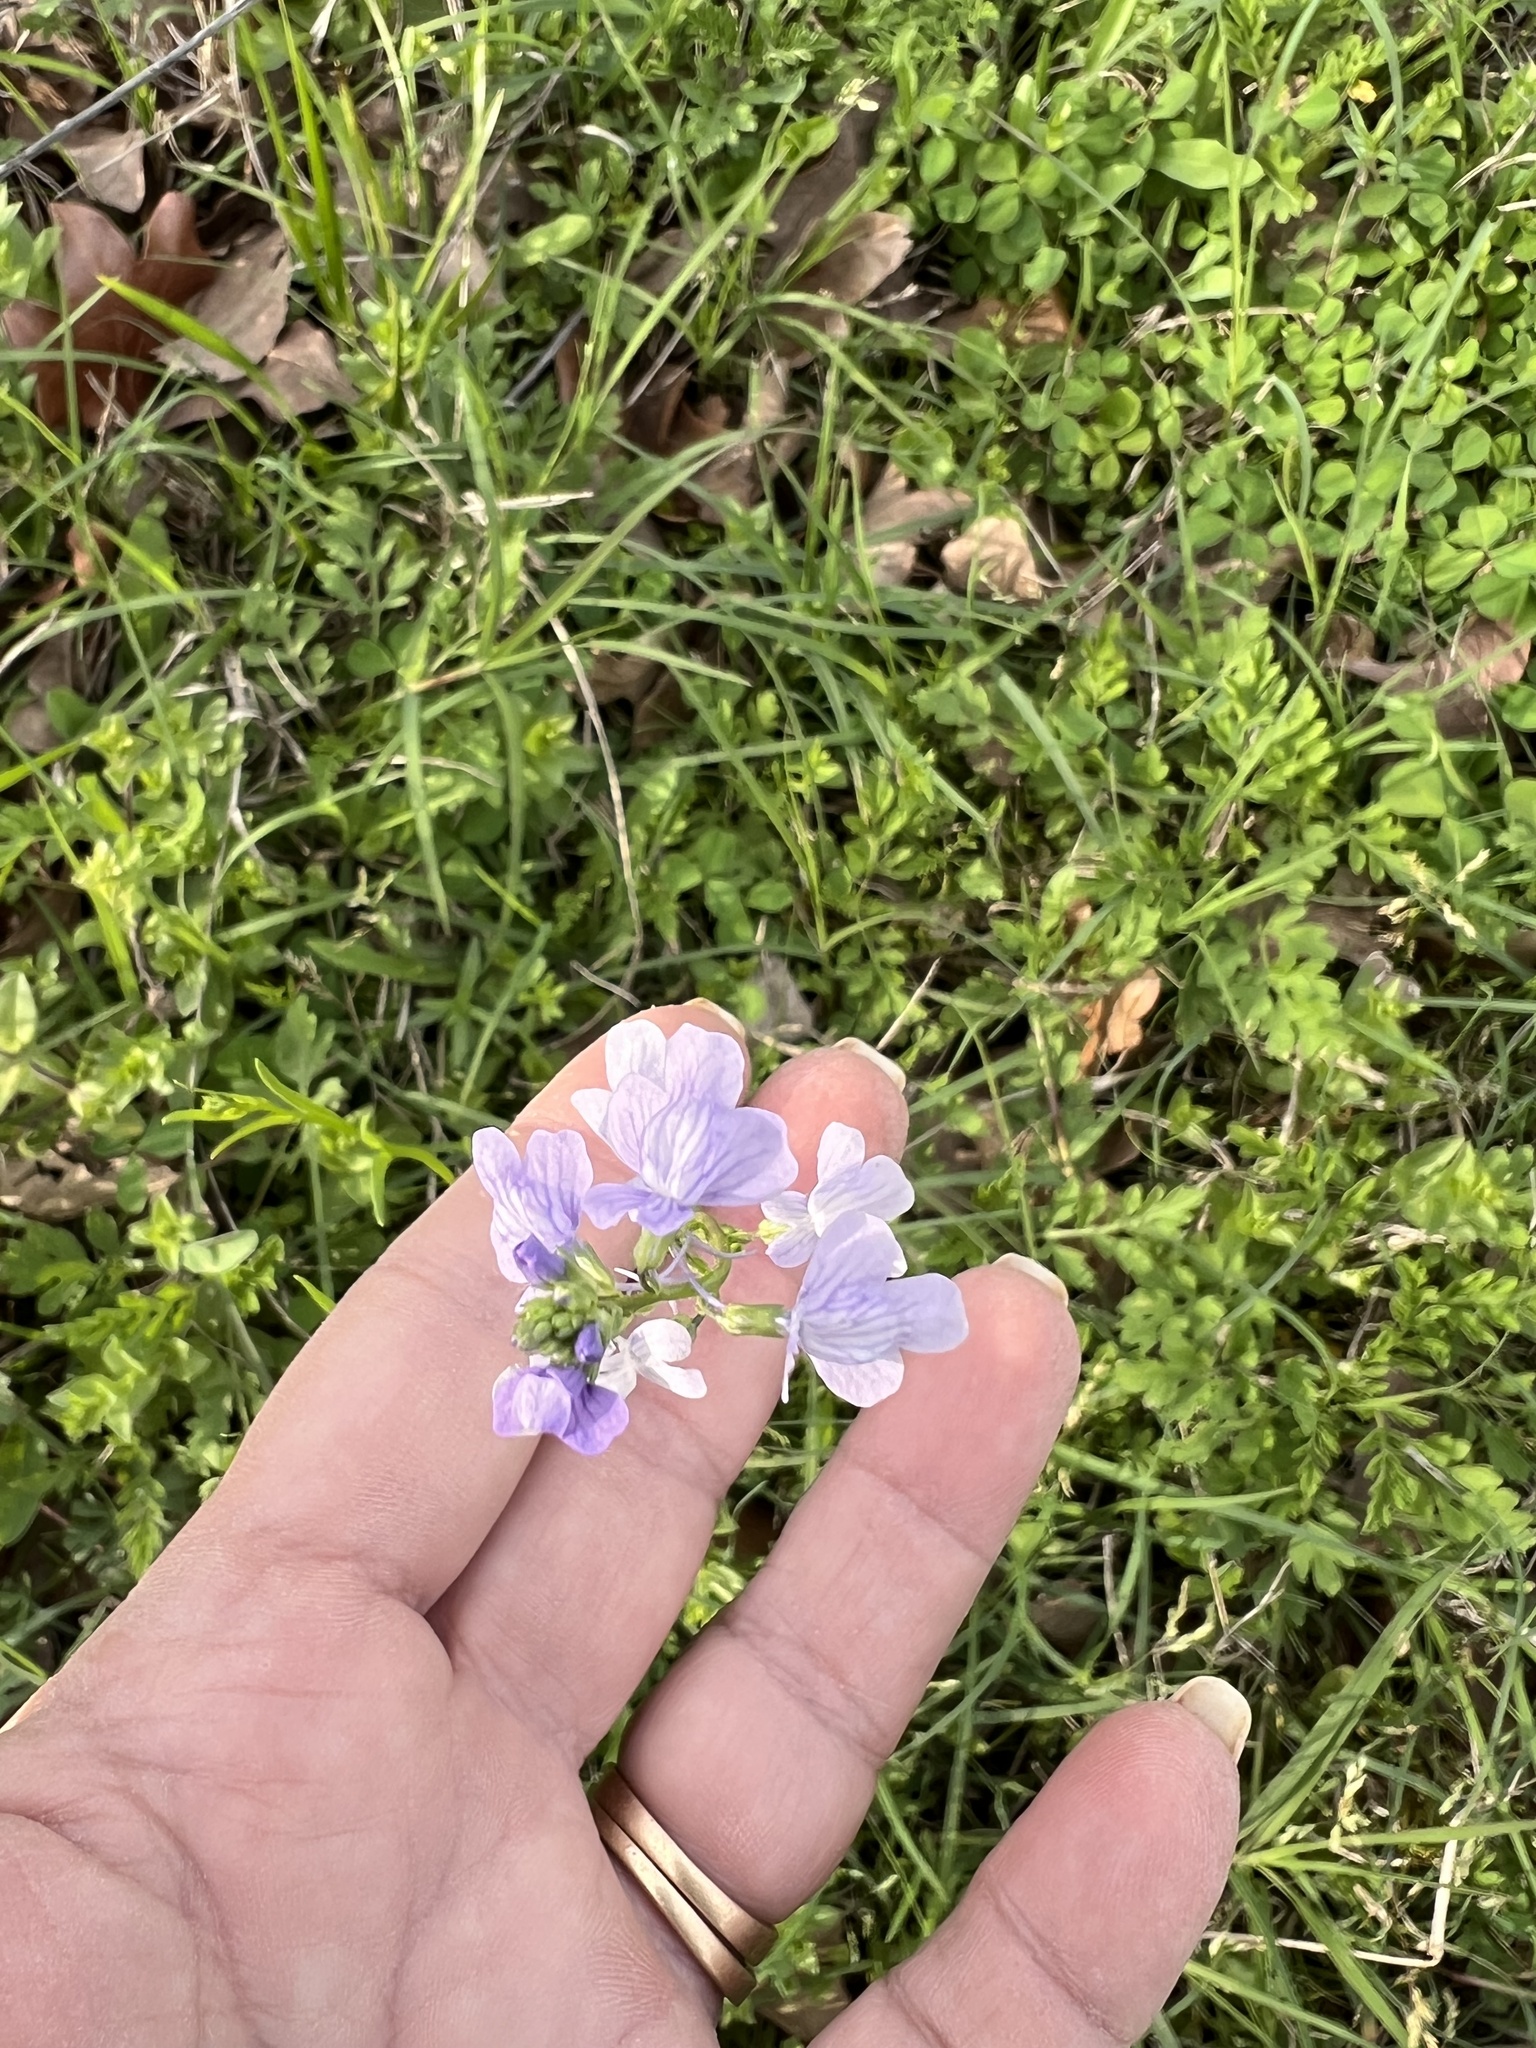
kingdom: Plantae
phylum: Tracheophyta
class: Magnoliopsida
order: Lamiales
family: Plantaginaceae
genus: Nuttallanthus
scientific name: Nuttallanthus texanus
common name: Texas toadflax
